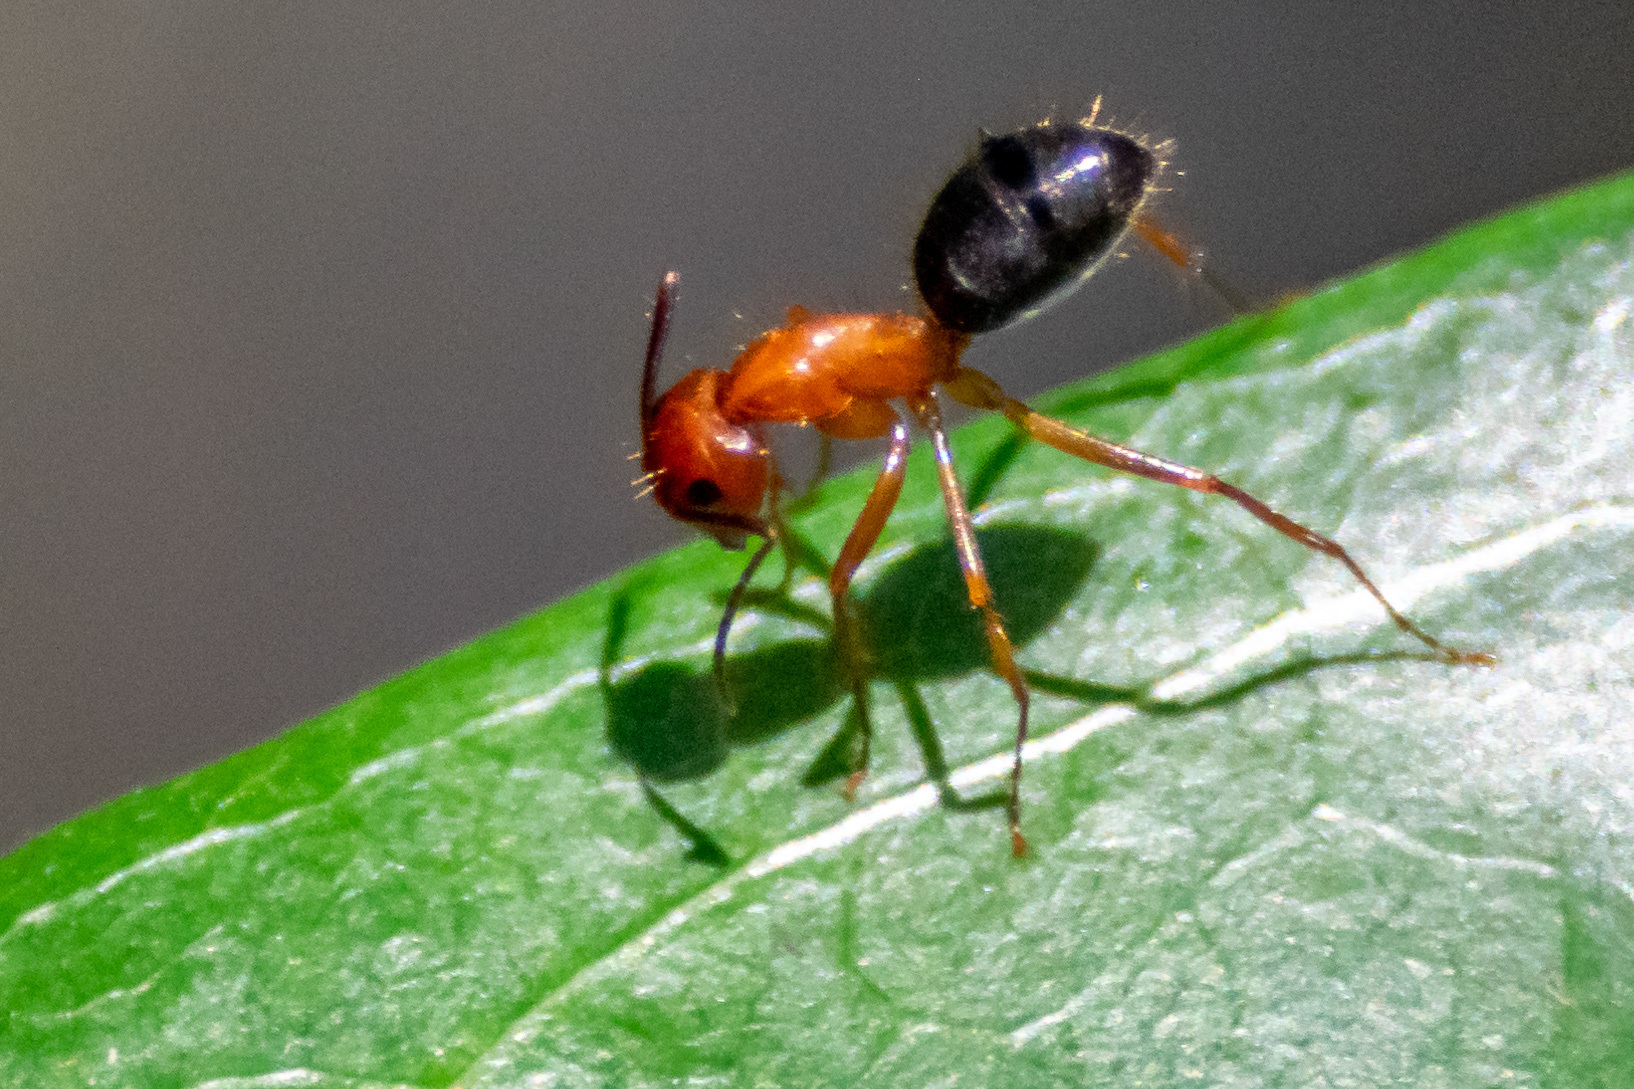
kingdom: Animalia
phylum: Arthropoda
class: Insecta
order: Hymenoptera
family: Formicidae
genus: Camponotus
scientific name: Camponotus floridanus
